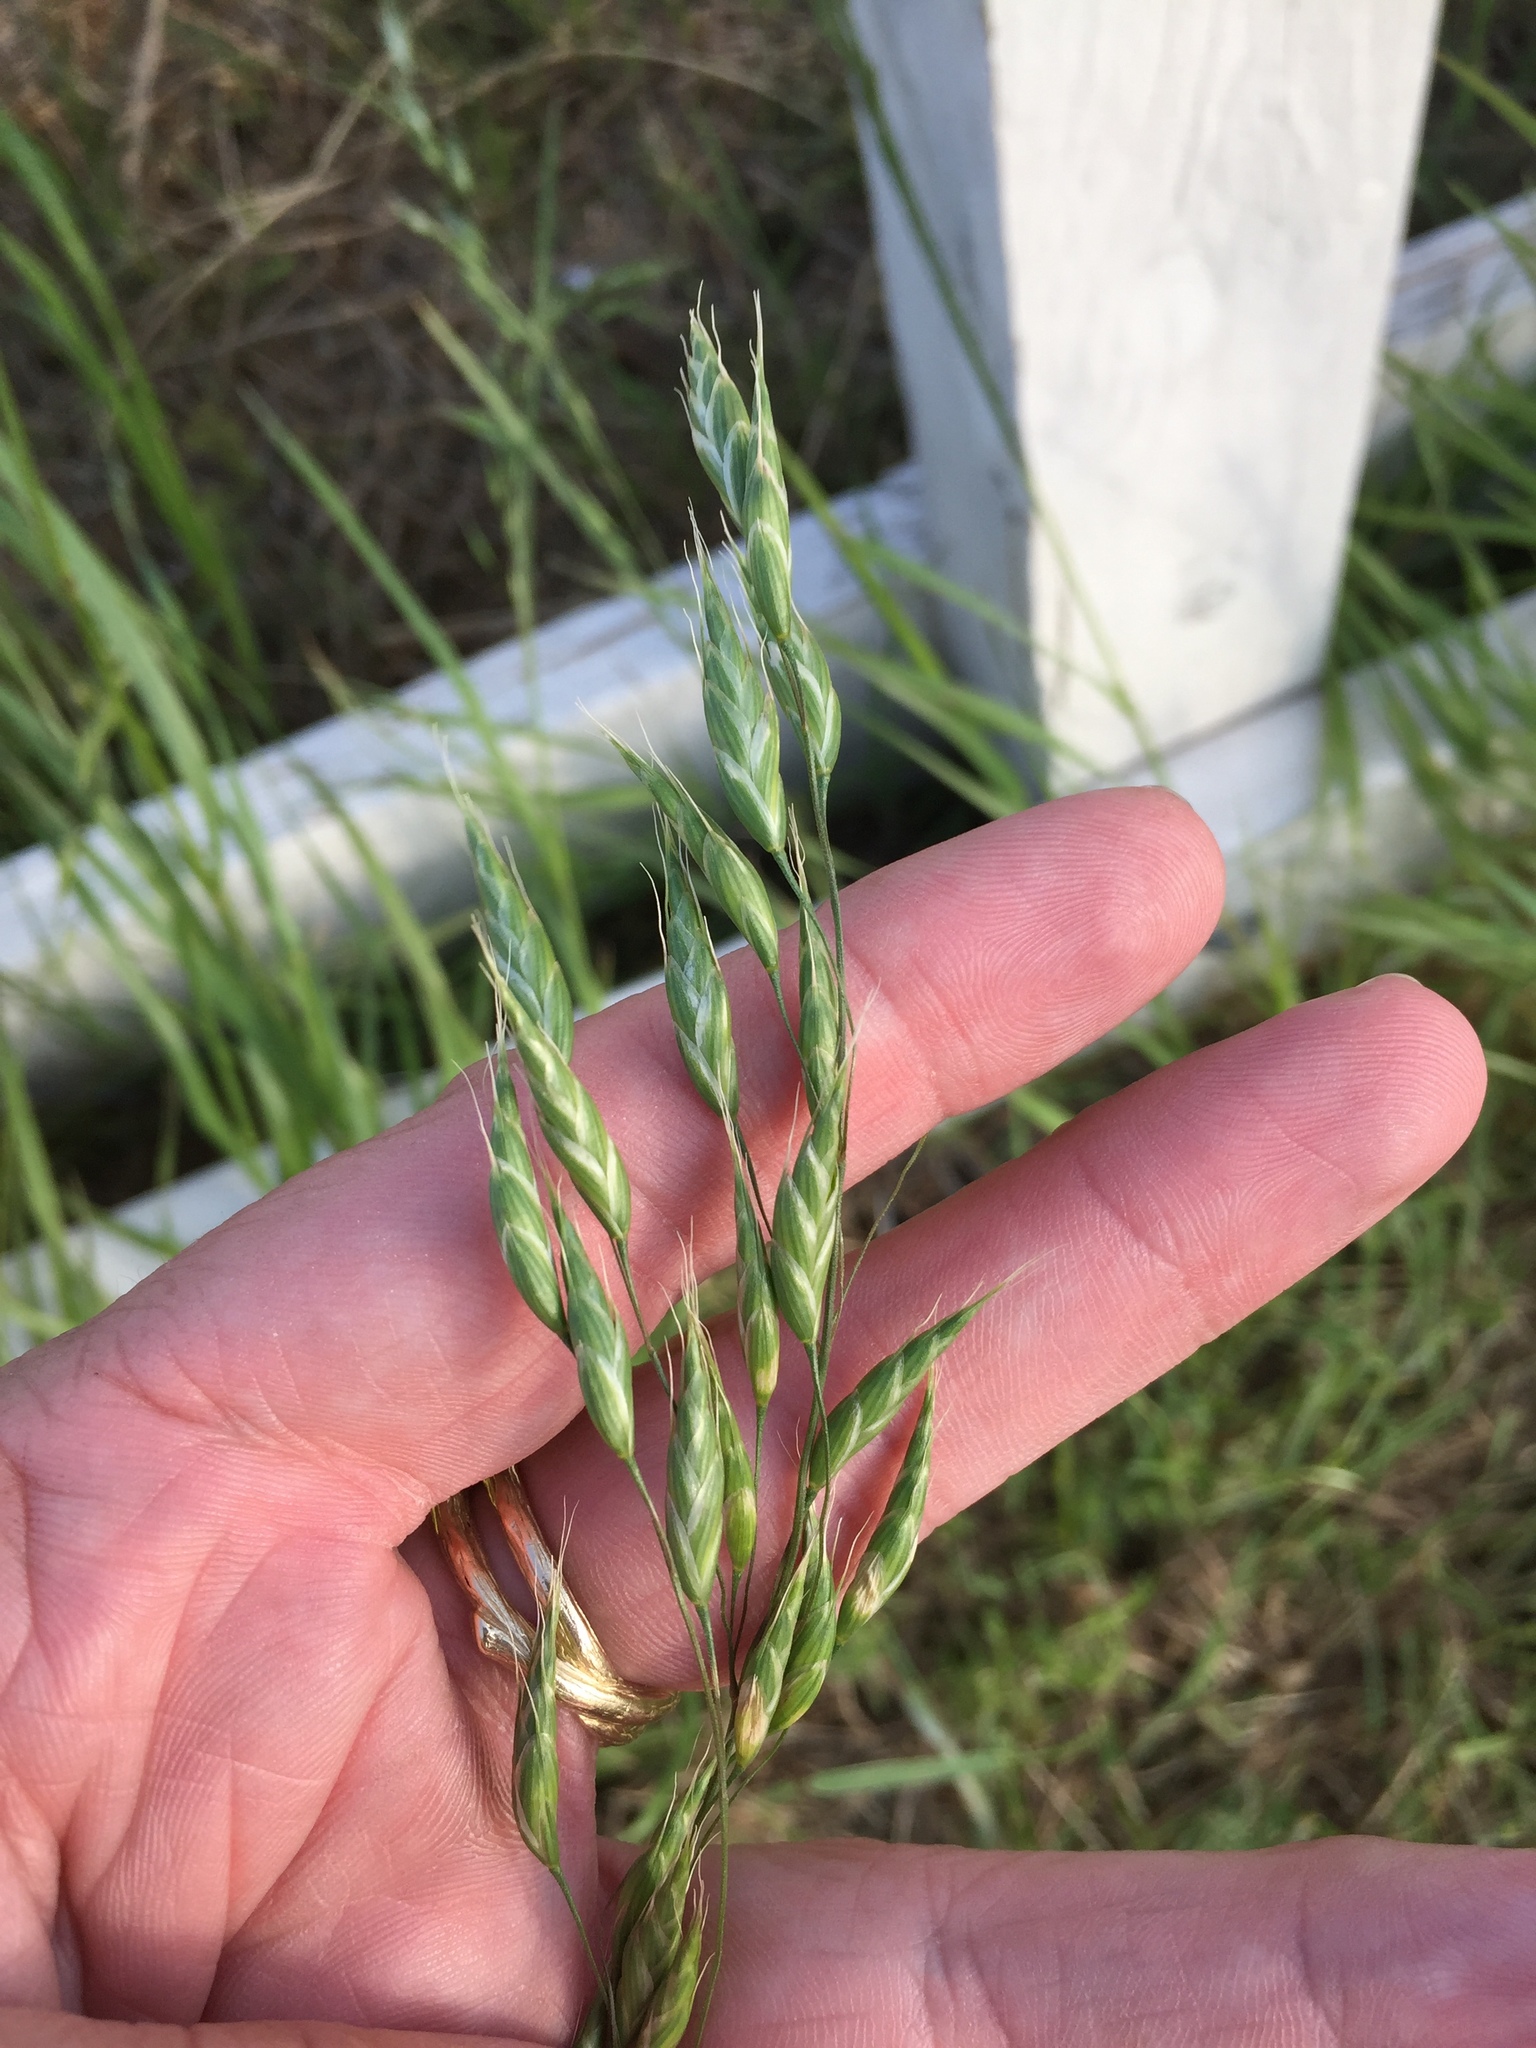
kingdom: Plantae
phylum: Tracheophyta
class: Liliopsida
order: Poales
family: Poaceae
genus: Bromus
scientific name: Bromus catharticus
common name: Rescuegrass
